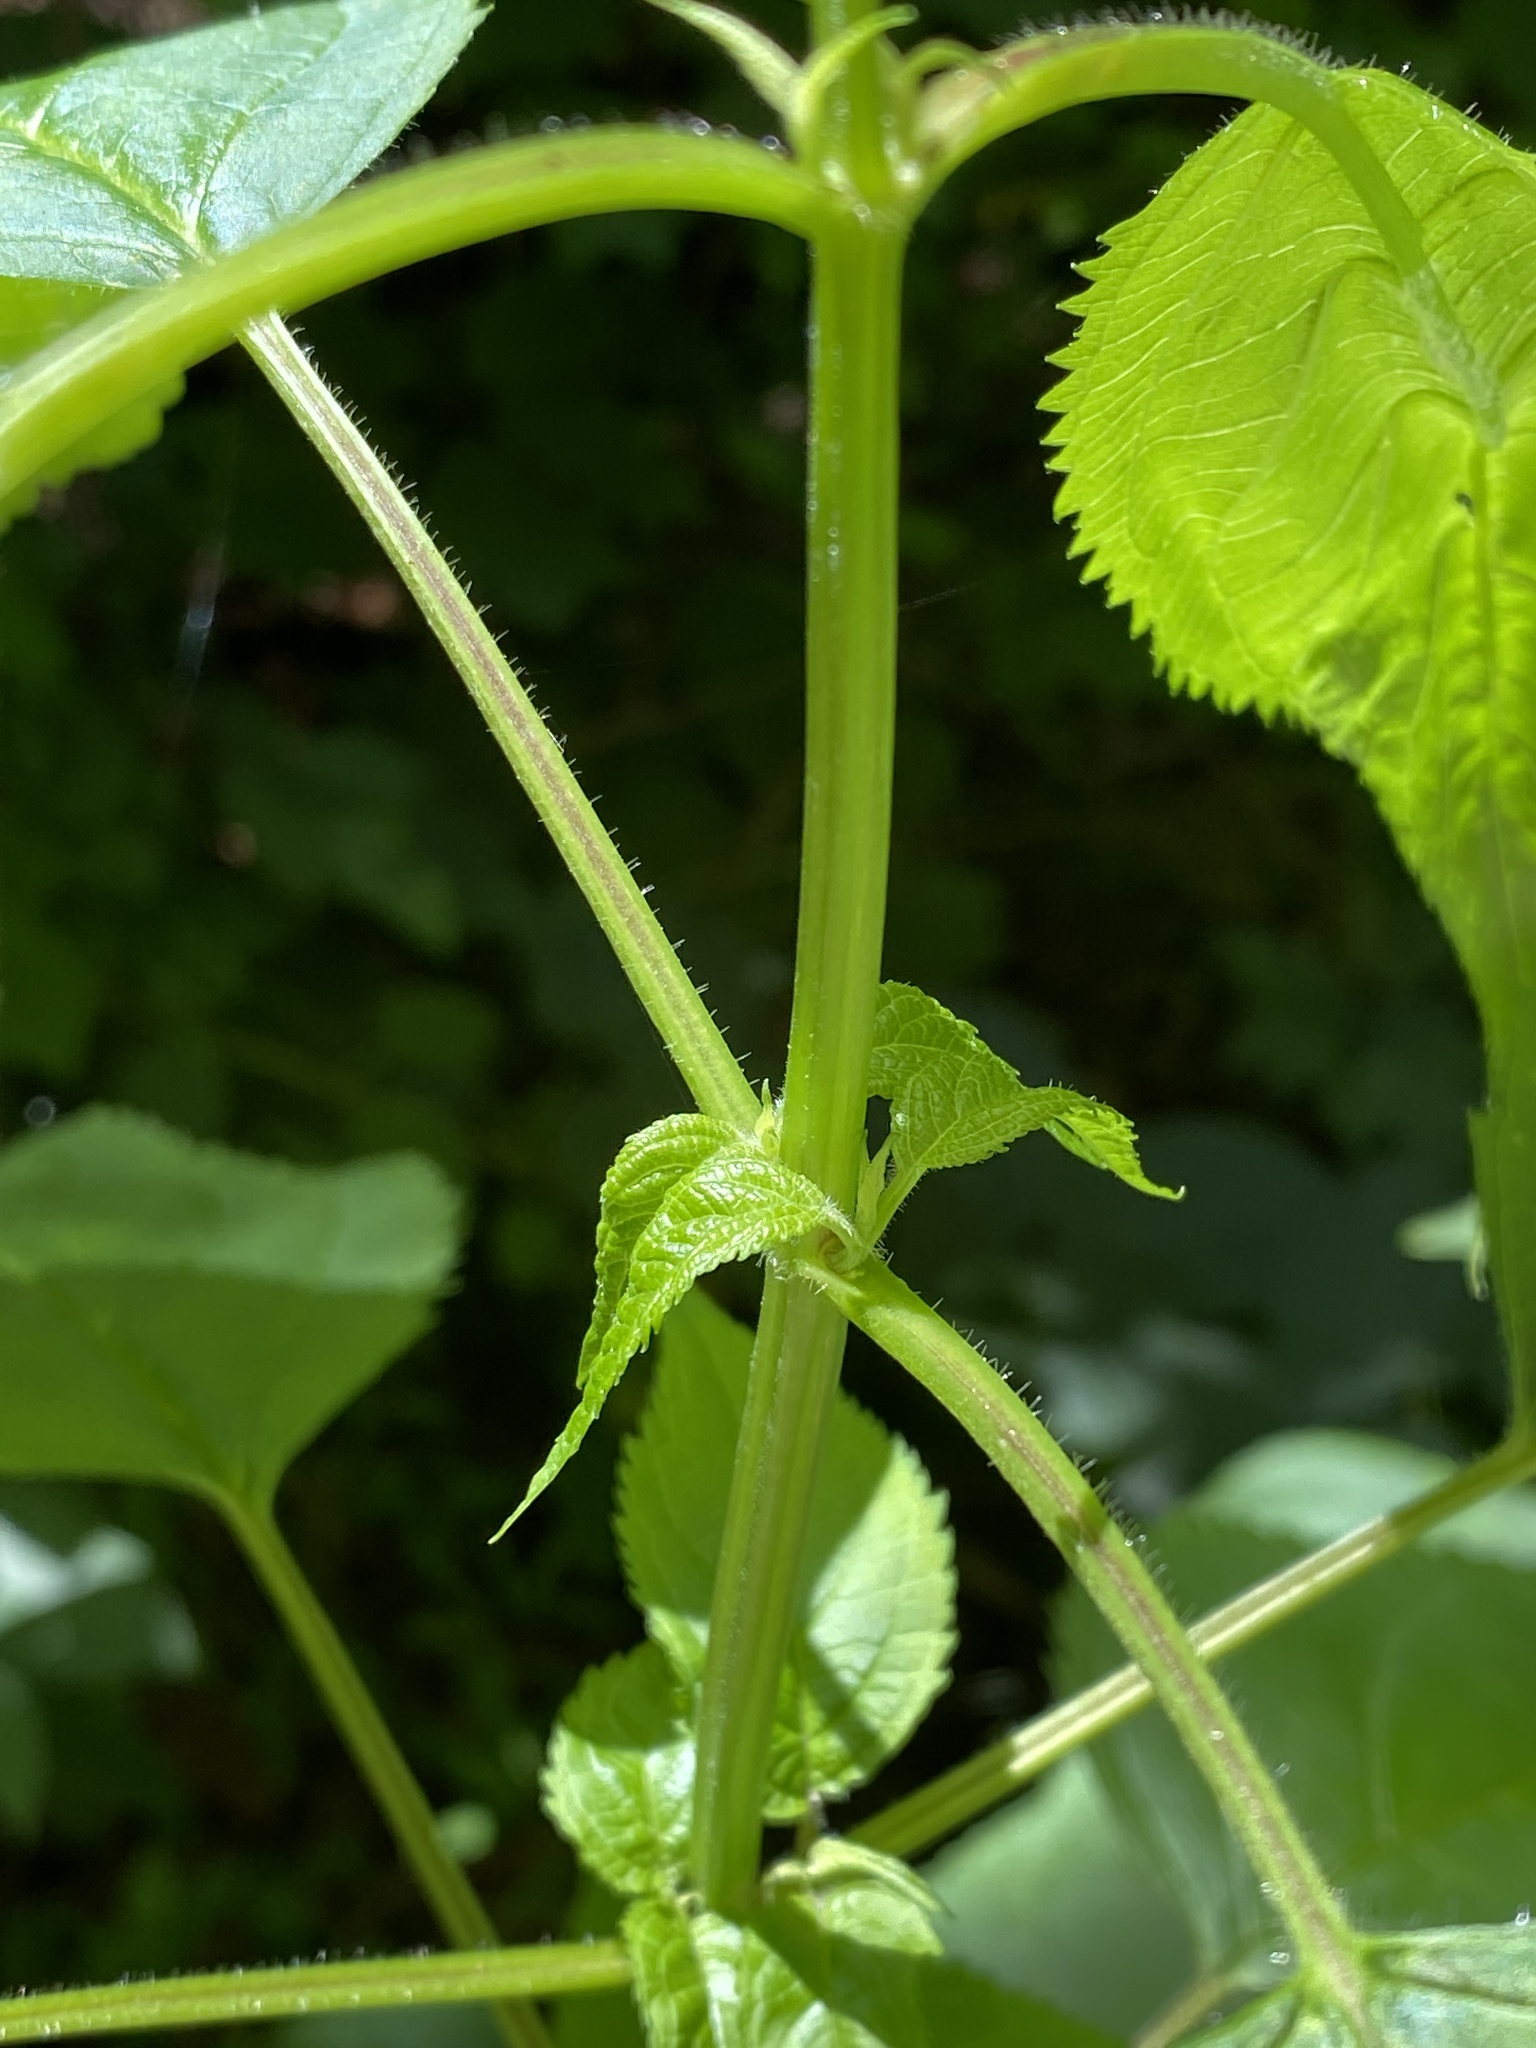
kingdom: Plantae
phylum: Tracheophyta
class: Magnoliopsida
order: Lamiales
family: Scrophulariaceae
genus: Scrophularia
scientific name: Scrophularia marilandica
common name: Eastern figwort
